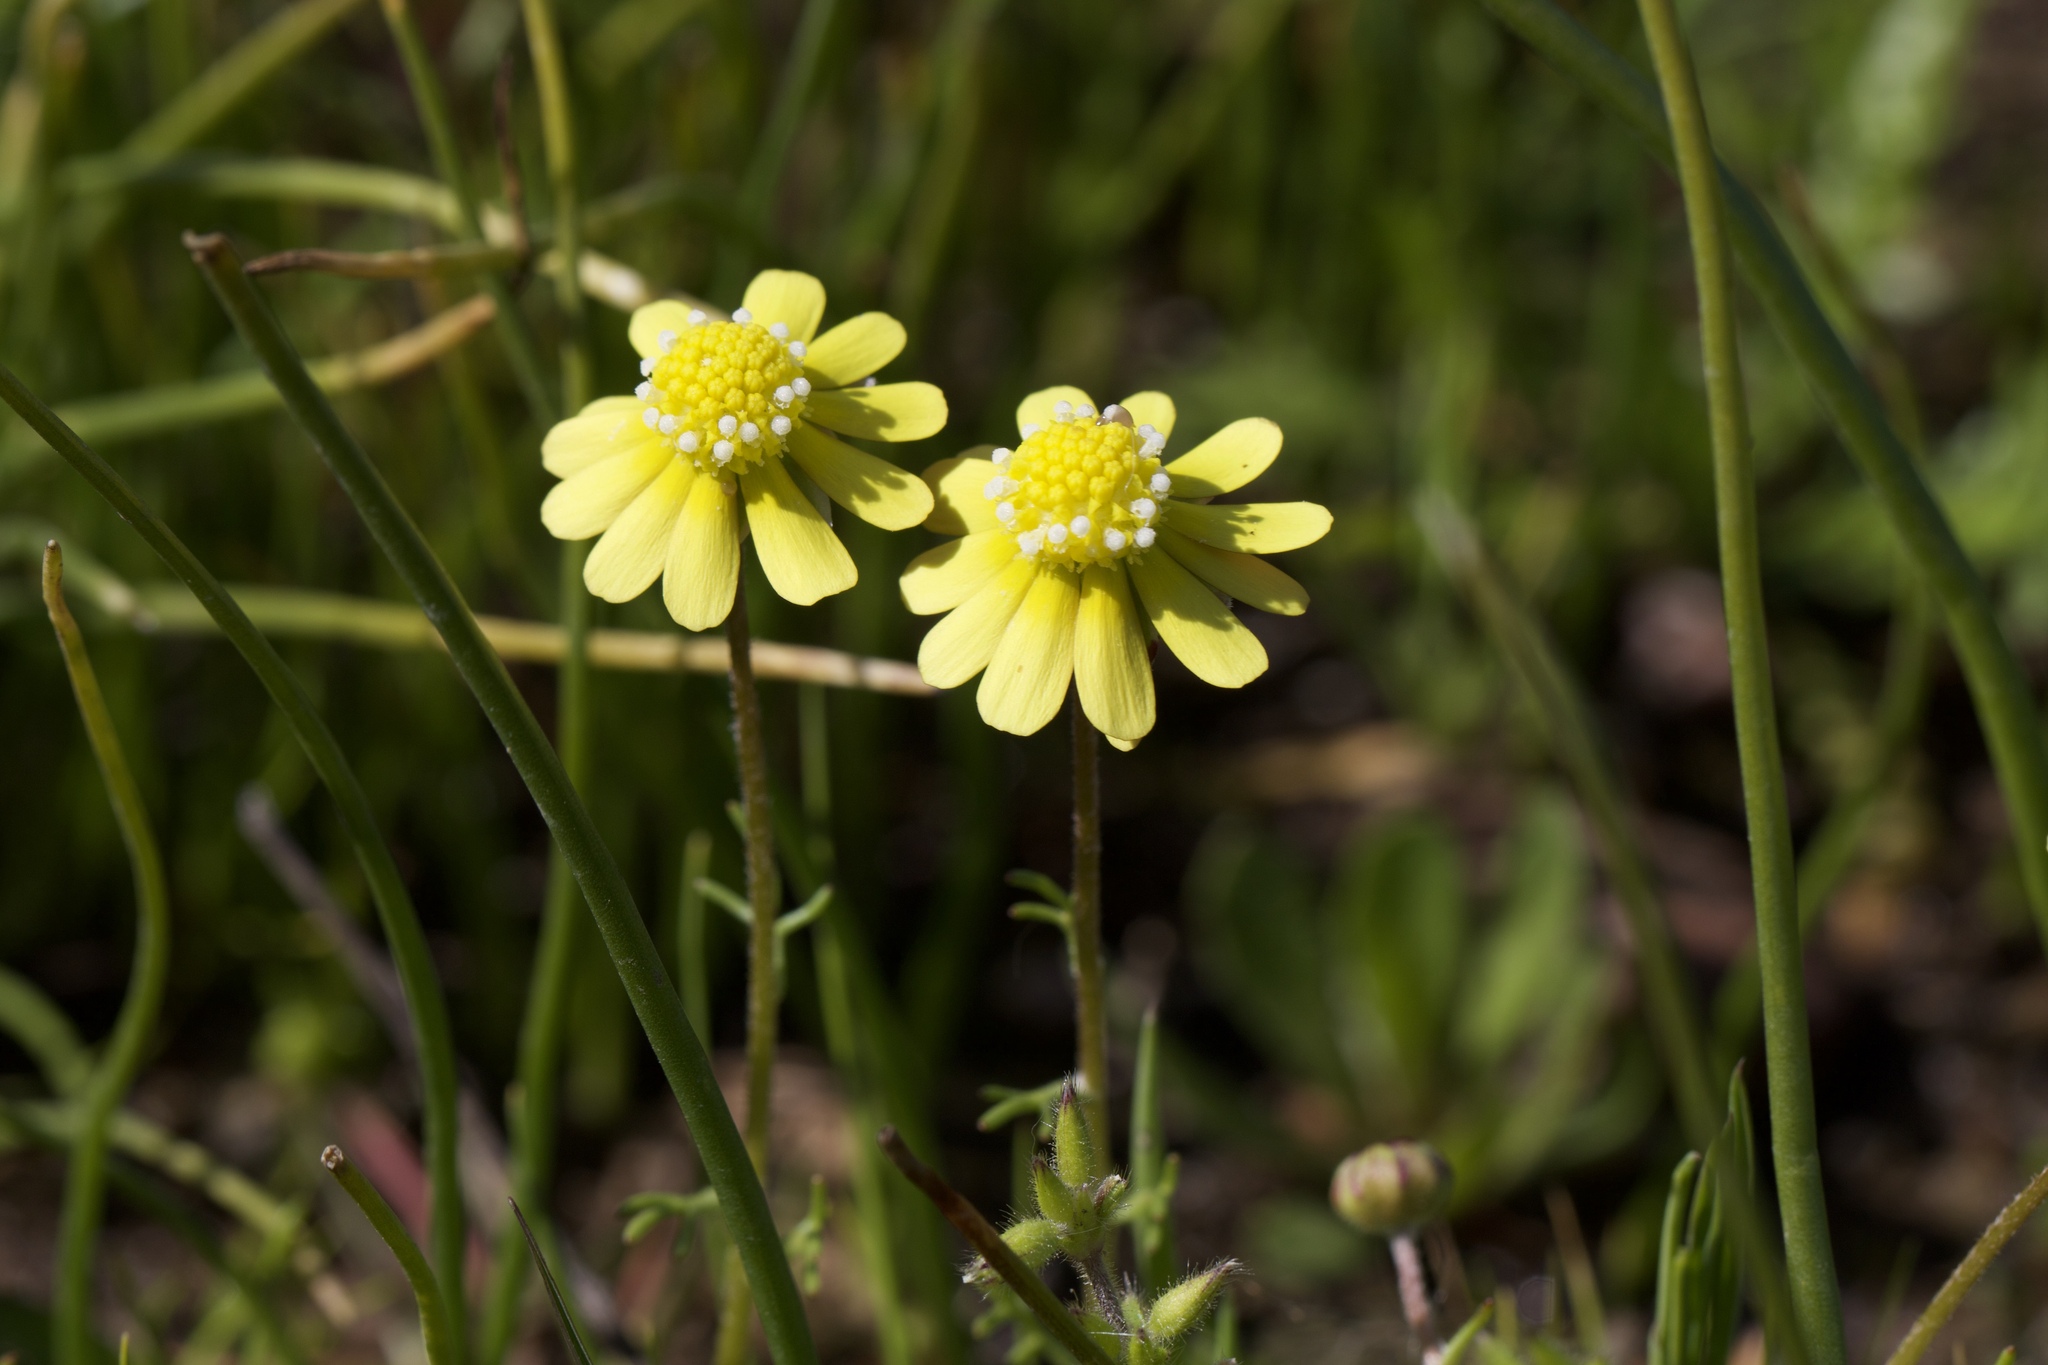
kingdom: Plantae
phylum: Tracheophyta
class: Magnoliopsida
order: Asterales
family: Asteraceae
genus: Blennosperma
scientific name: Blennosperma nanum
